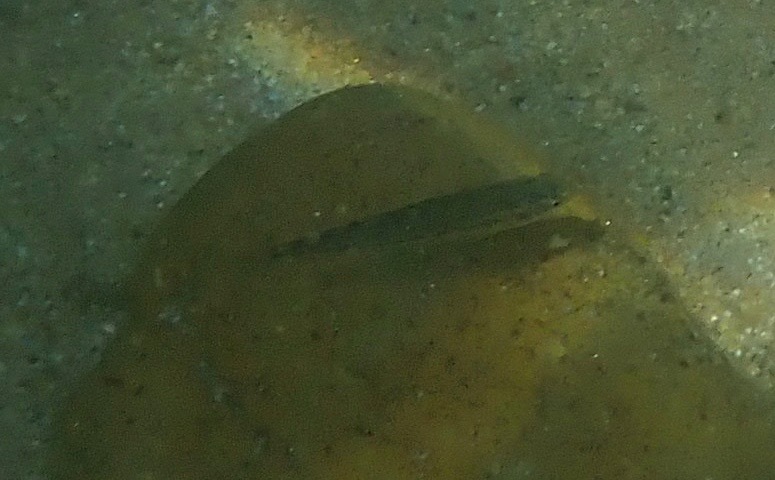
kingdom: Animalia
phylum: Chordata
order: Cypriniformes
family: Cyprinidae
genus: Rhinichthys
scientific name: Rhinichthys osculus
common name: Speckled dace
